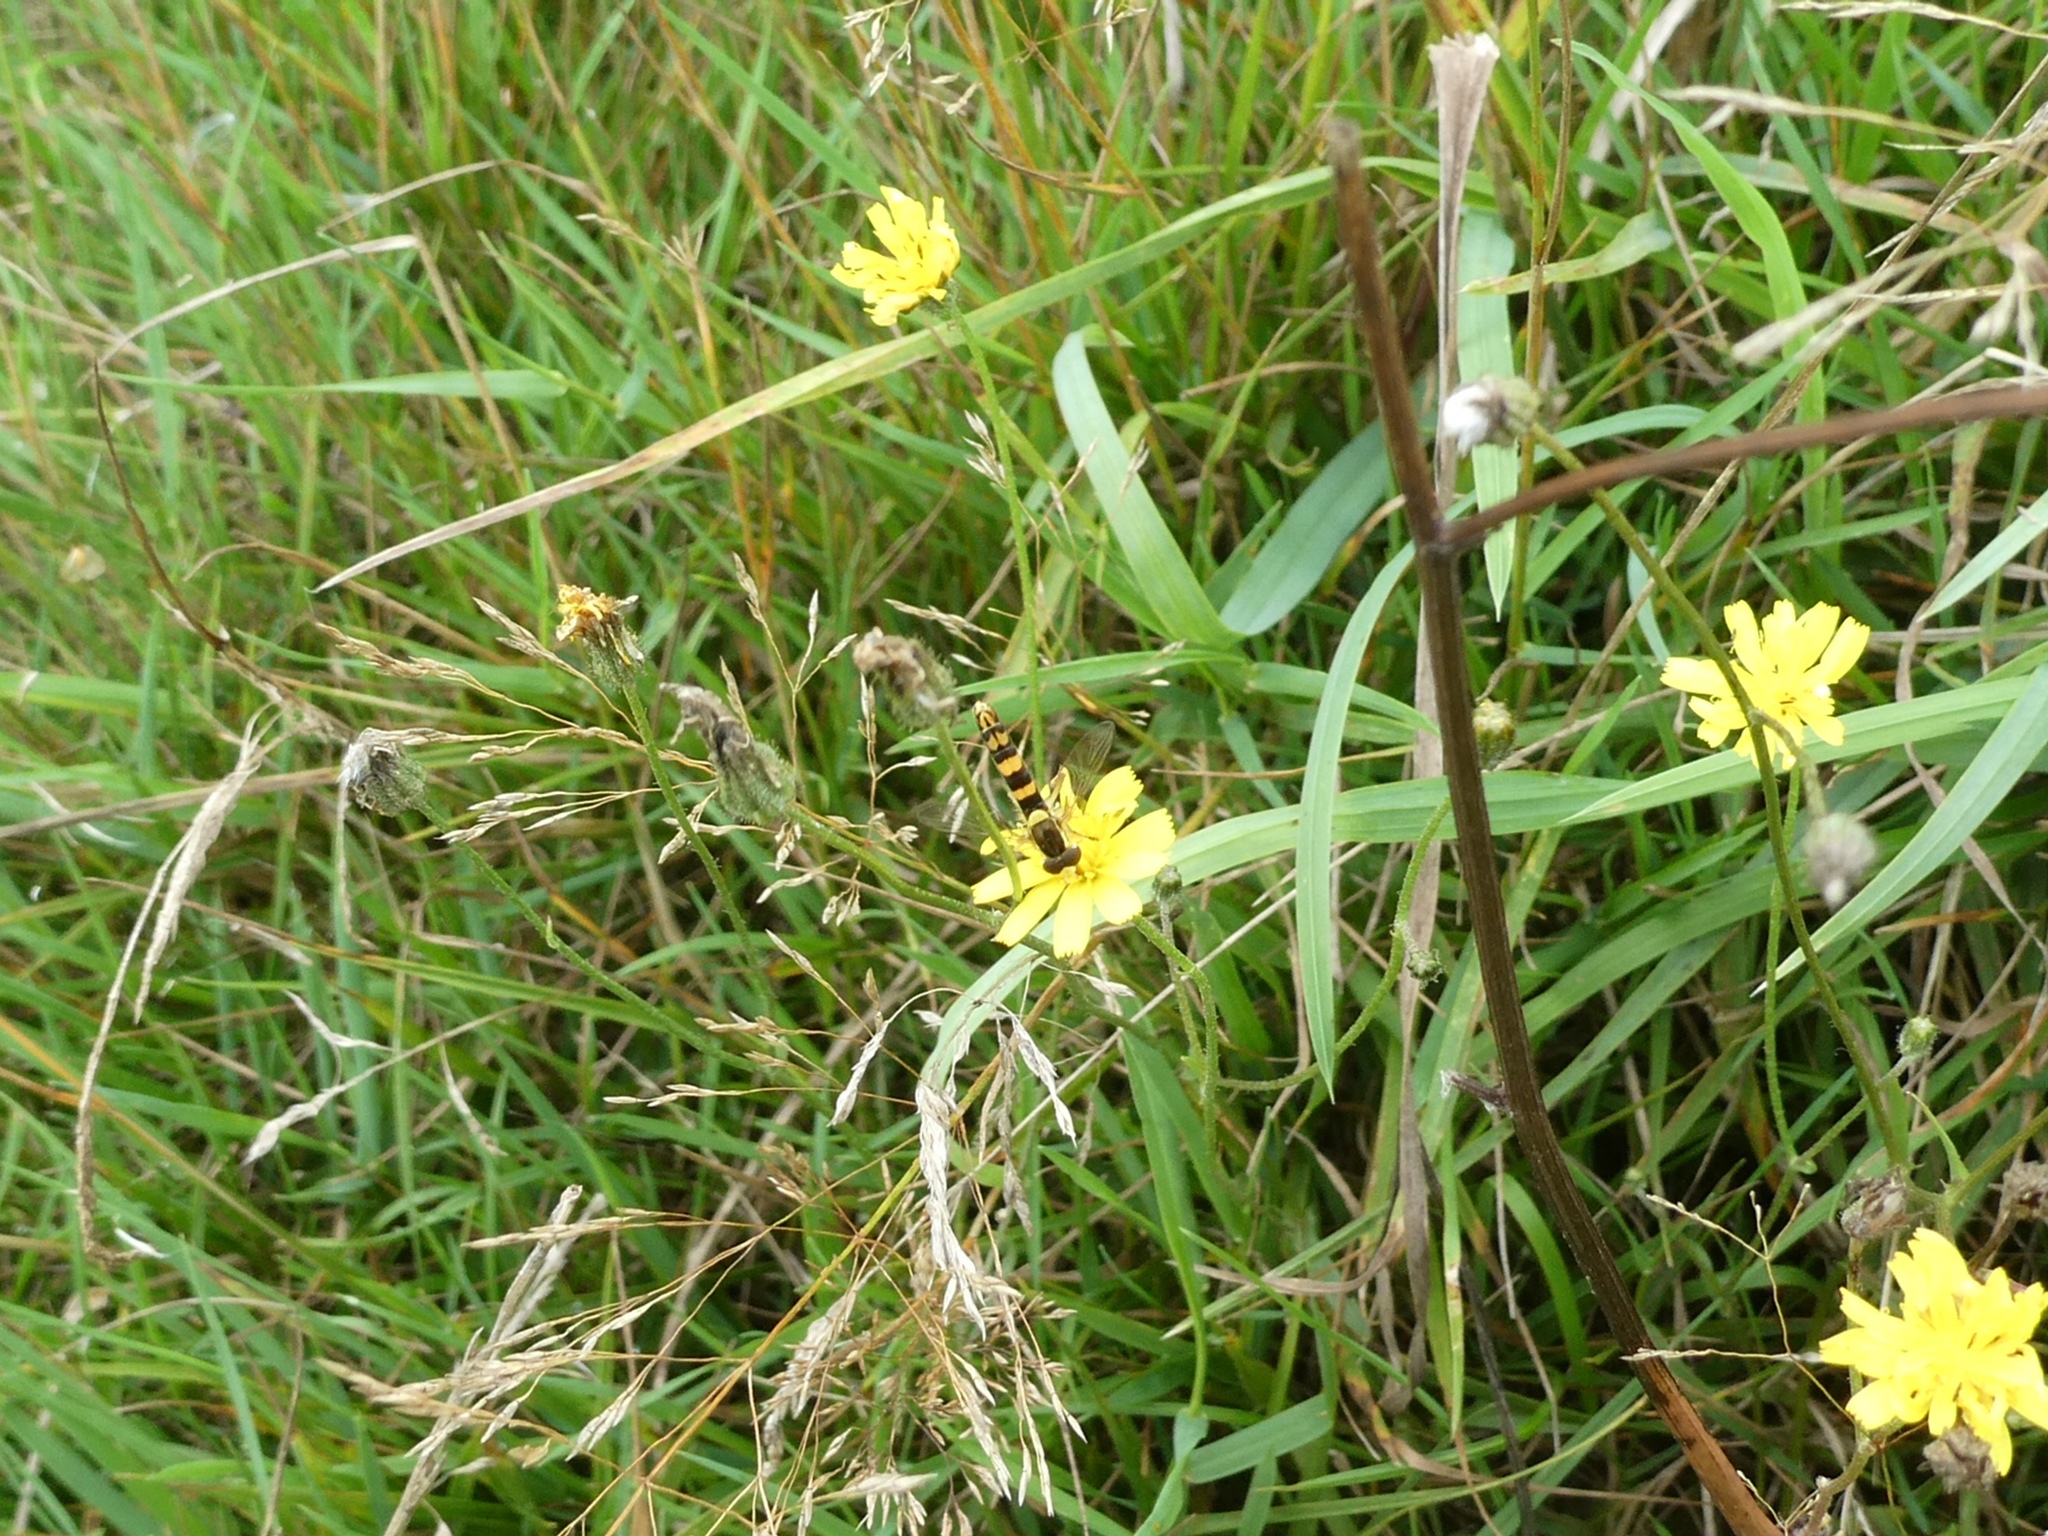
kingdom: Animalia
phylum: Arthropoda
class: Insecta
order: Diptera
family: Syrphidae
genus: Sphaerophoria
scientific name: Sphaerophoria scripta
